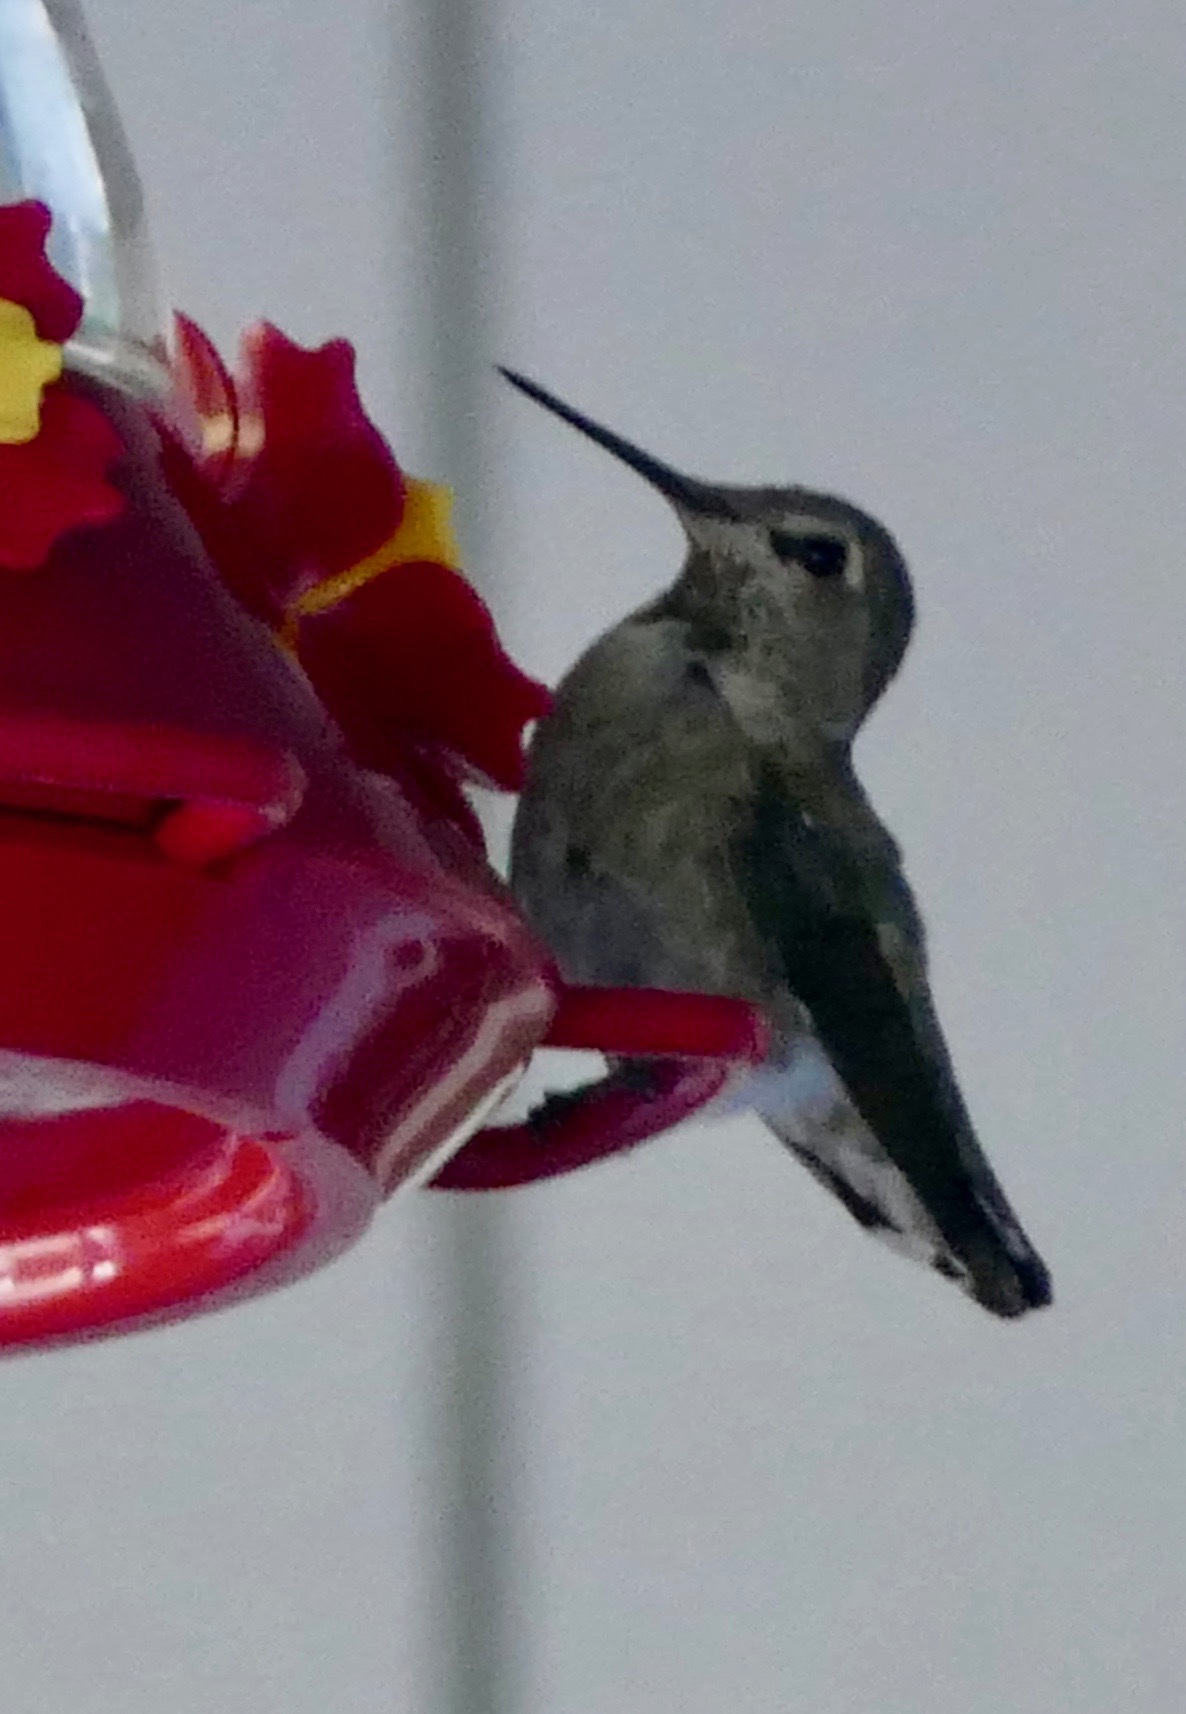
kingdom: Animalia
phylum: Chordata
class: Aves
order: Apodiformes
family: Trochilidae
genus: Calypte
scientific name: Calypte anna
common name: Anna's hummingbird
